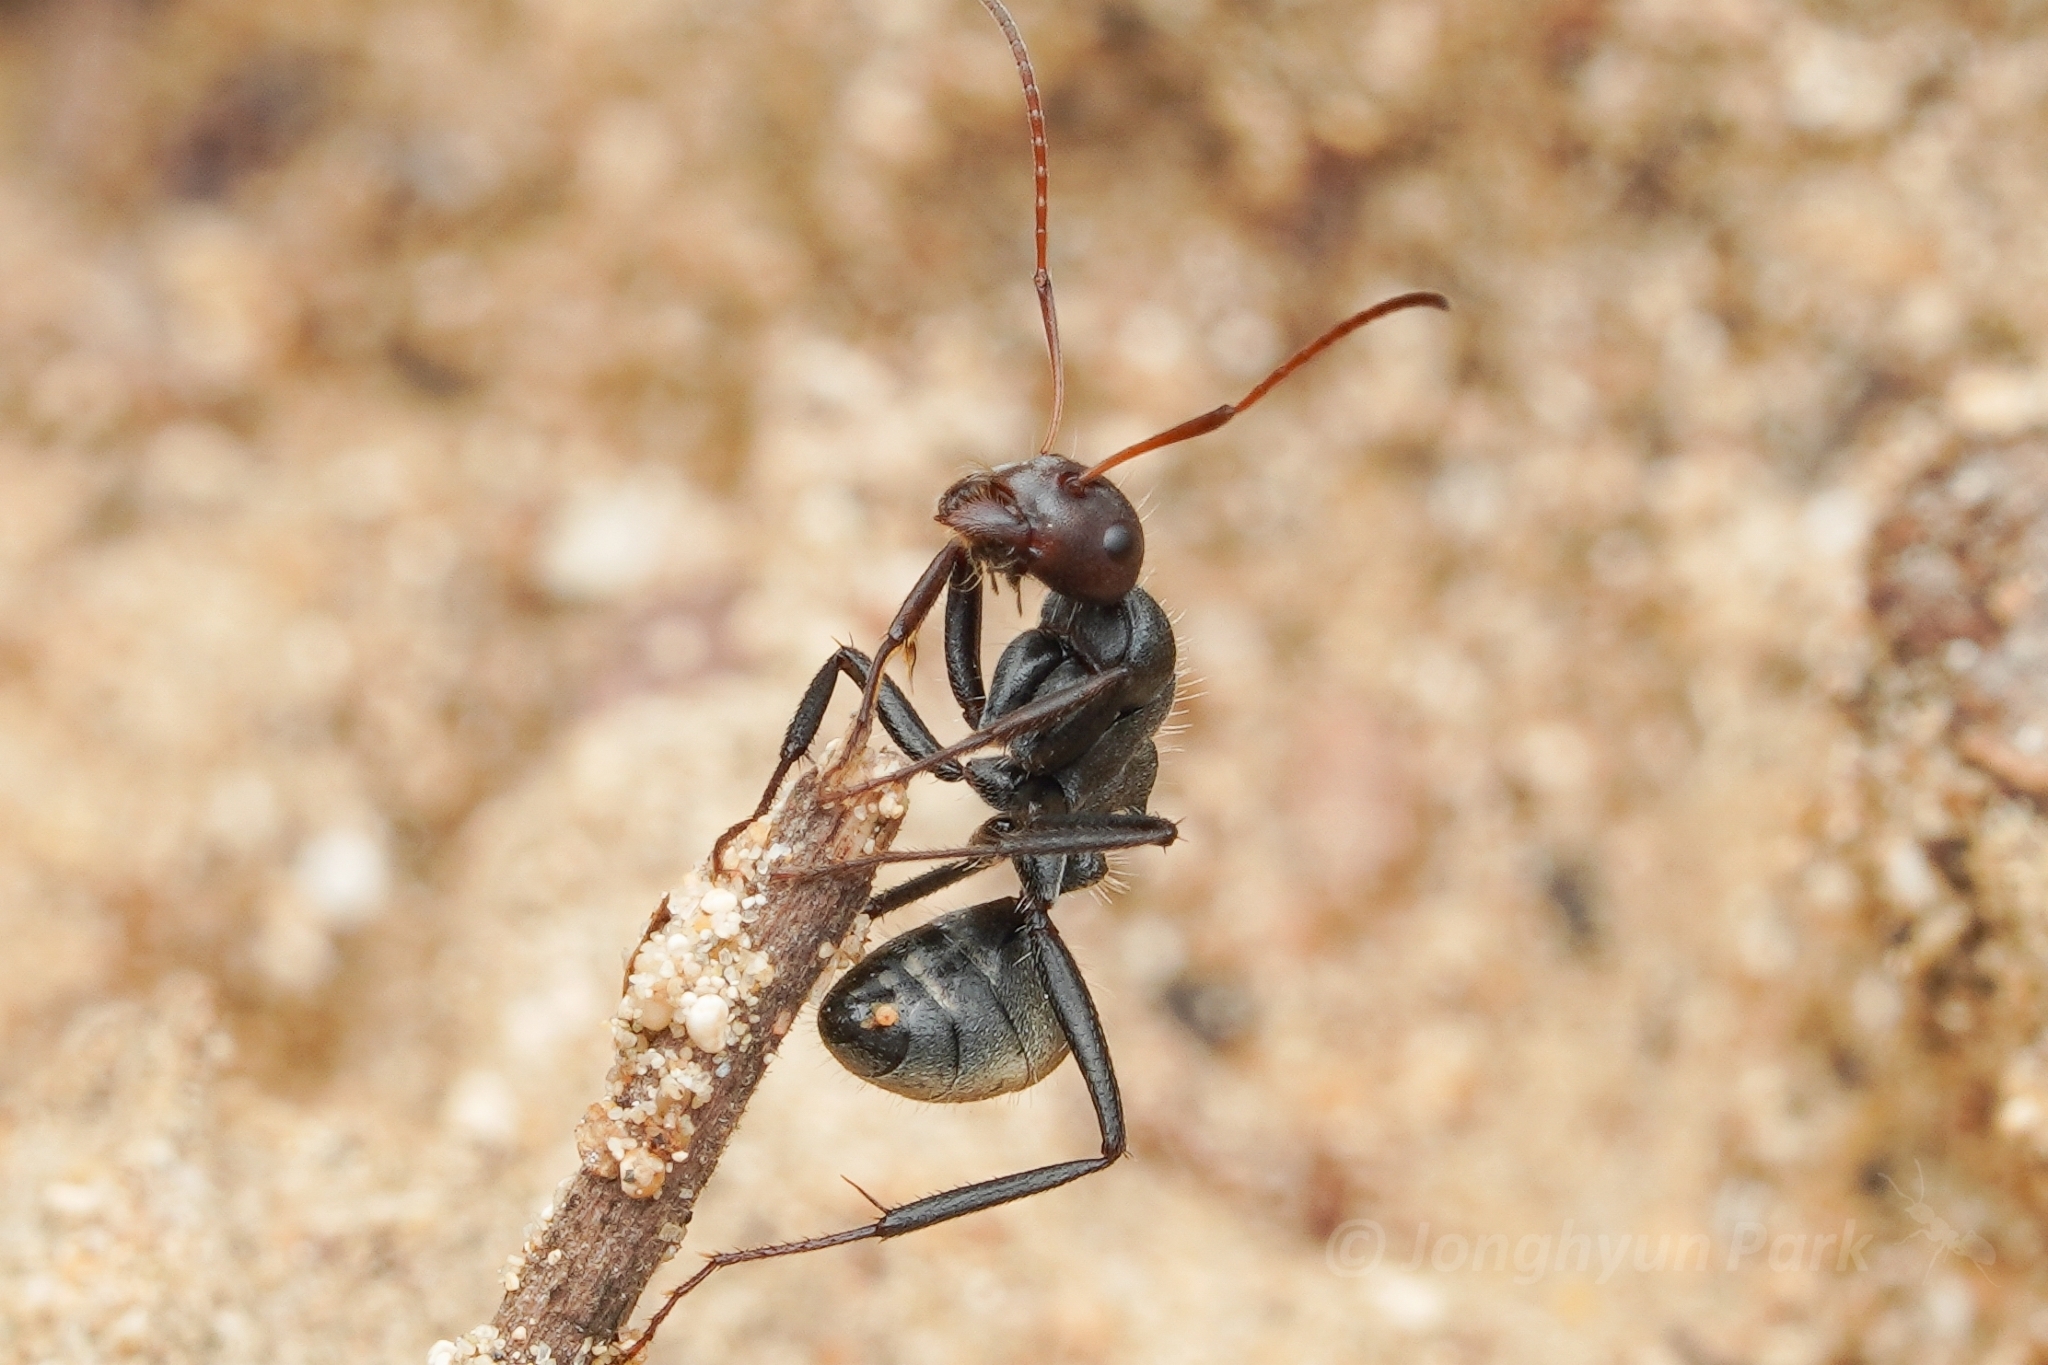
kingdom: Animalia
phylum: Arthropoda
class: Insecta
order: Hymenoptera
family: Formicidae
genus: Camponotus
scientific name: Camponotus sericeus
